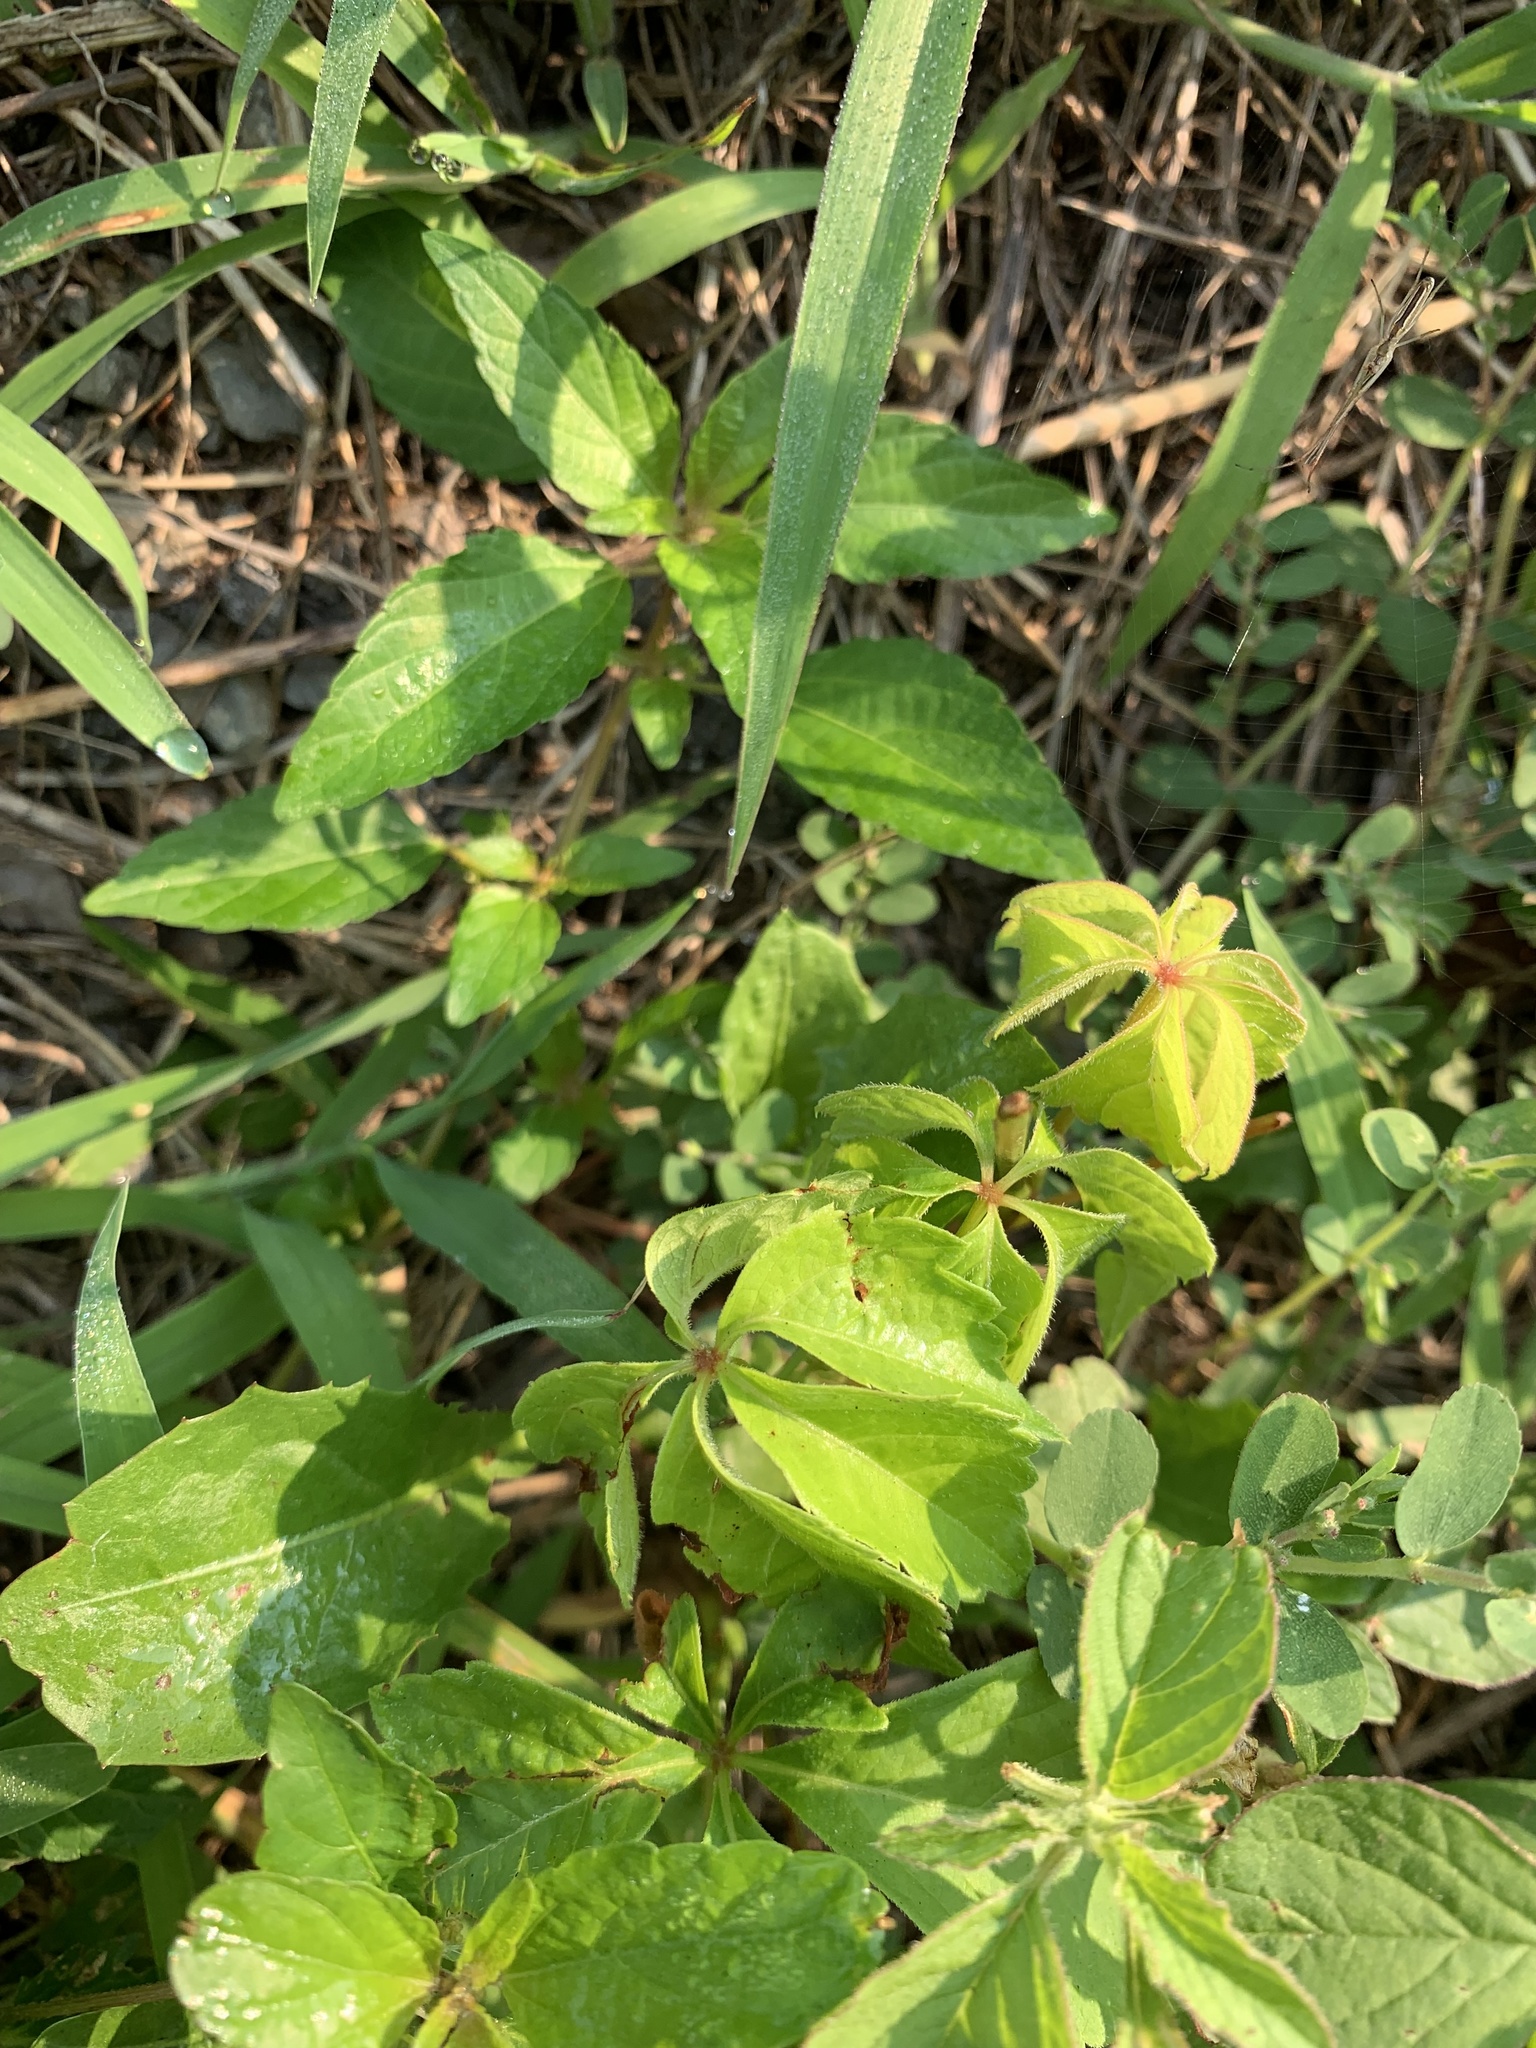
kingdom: Plantae
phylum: Tracheophyta
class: Magnoliopsida
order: Vitales
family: Vitaceae
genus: Parthenocissus
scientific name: Parthenocissus quinquefolia
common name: Virginia-creeper
